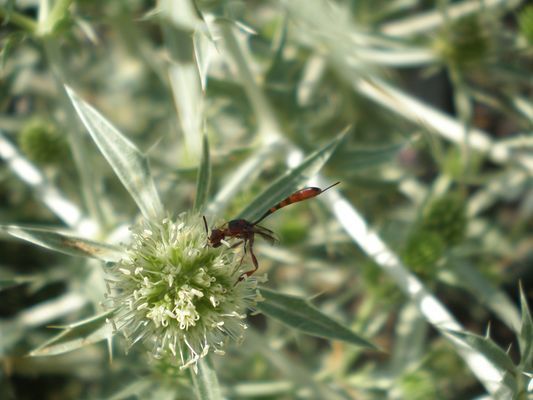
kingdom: Animalia
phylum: Arthropoda
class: Insecta
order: Hymenoptera
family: Gasteruptiidae
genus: Gasteruption
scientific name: Gasteruption hastator
